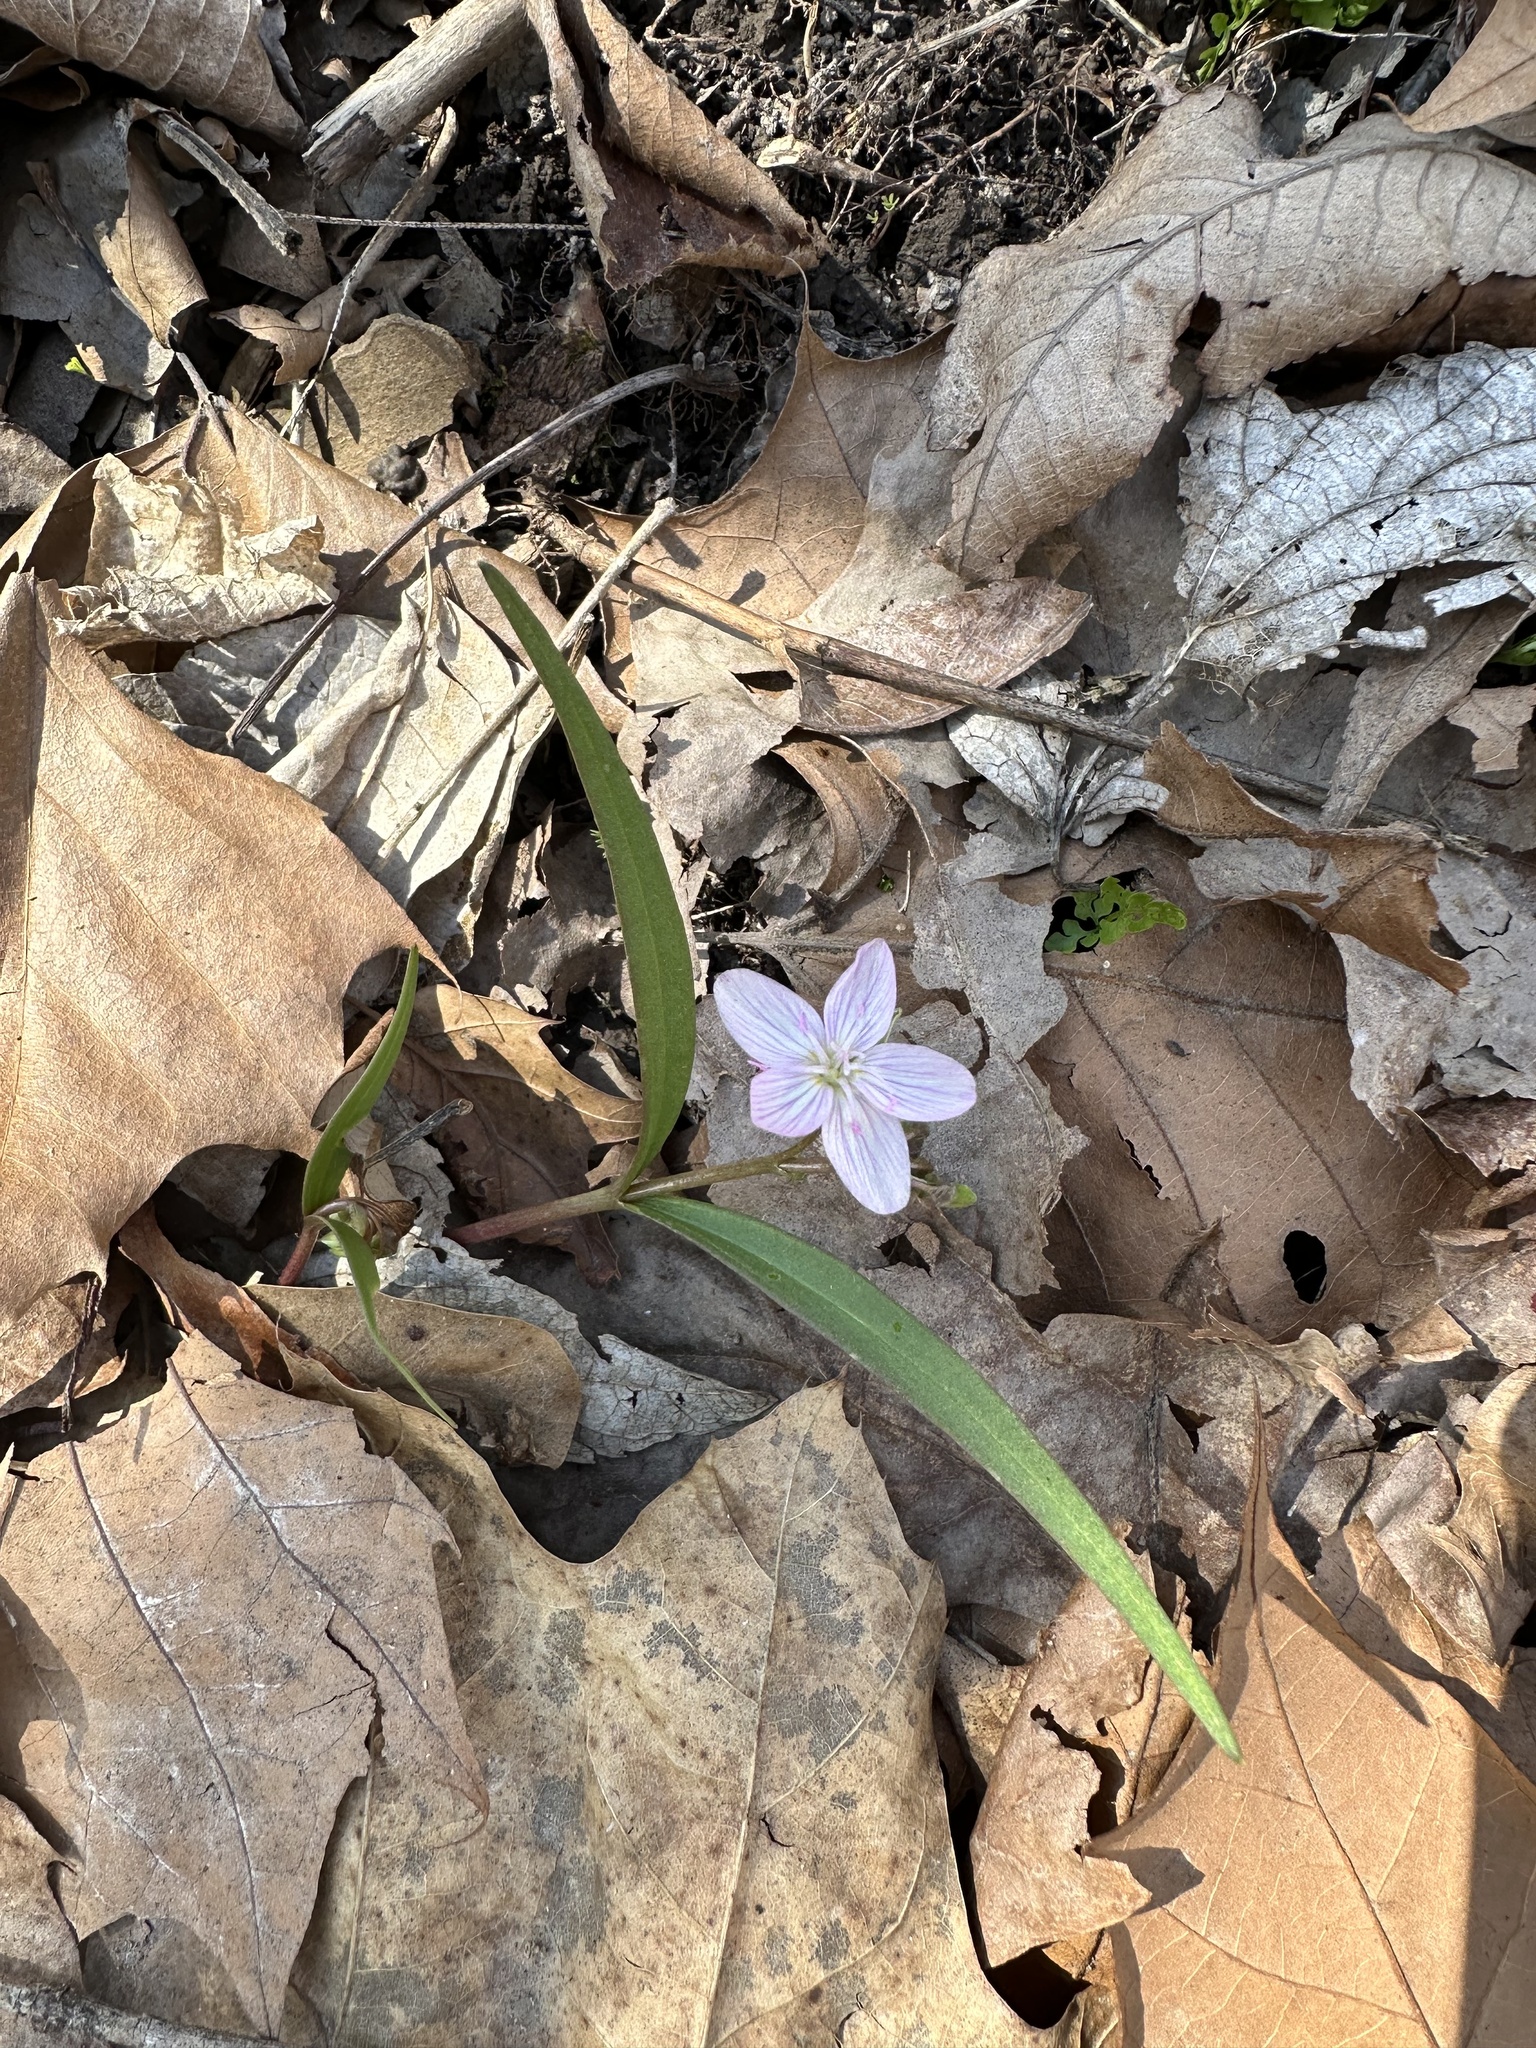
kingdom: Plantae
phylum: Tracheophyta
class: Magnoliopsida
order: Caryophyllales
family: Montiaceae
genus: Claytonia
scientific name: Claytonia virginica
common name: Virginia springbeauty
